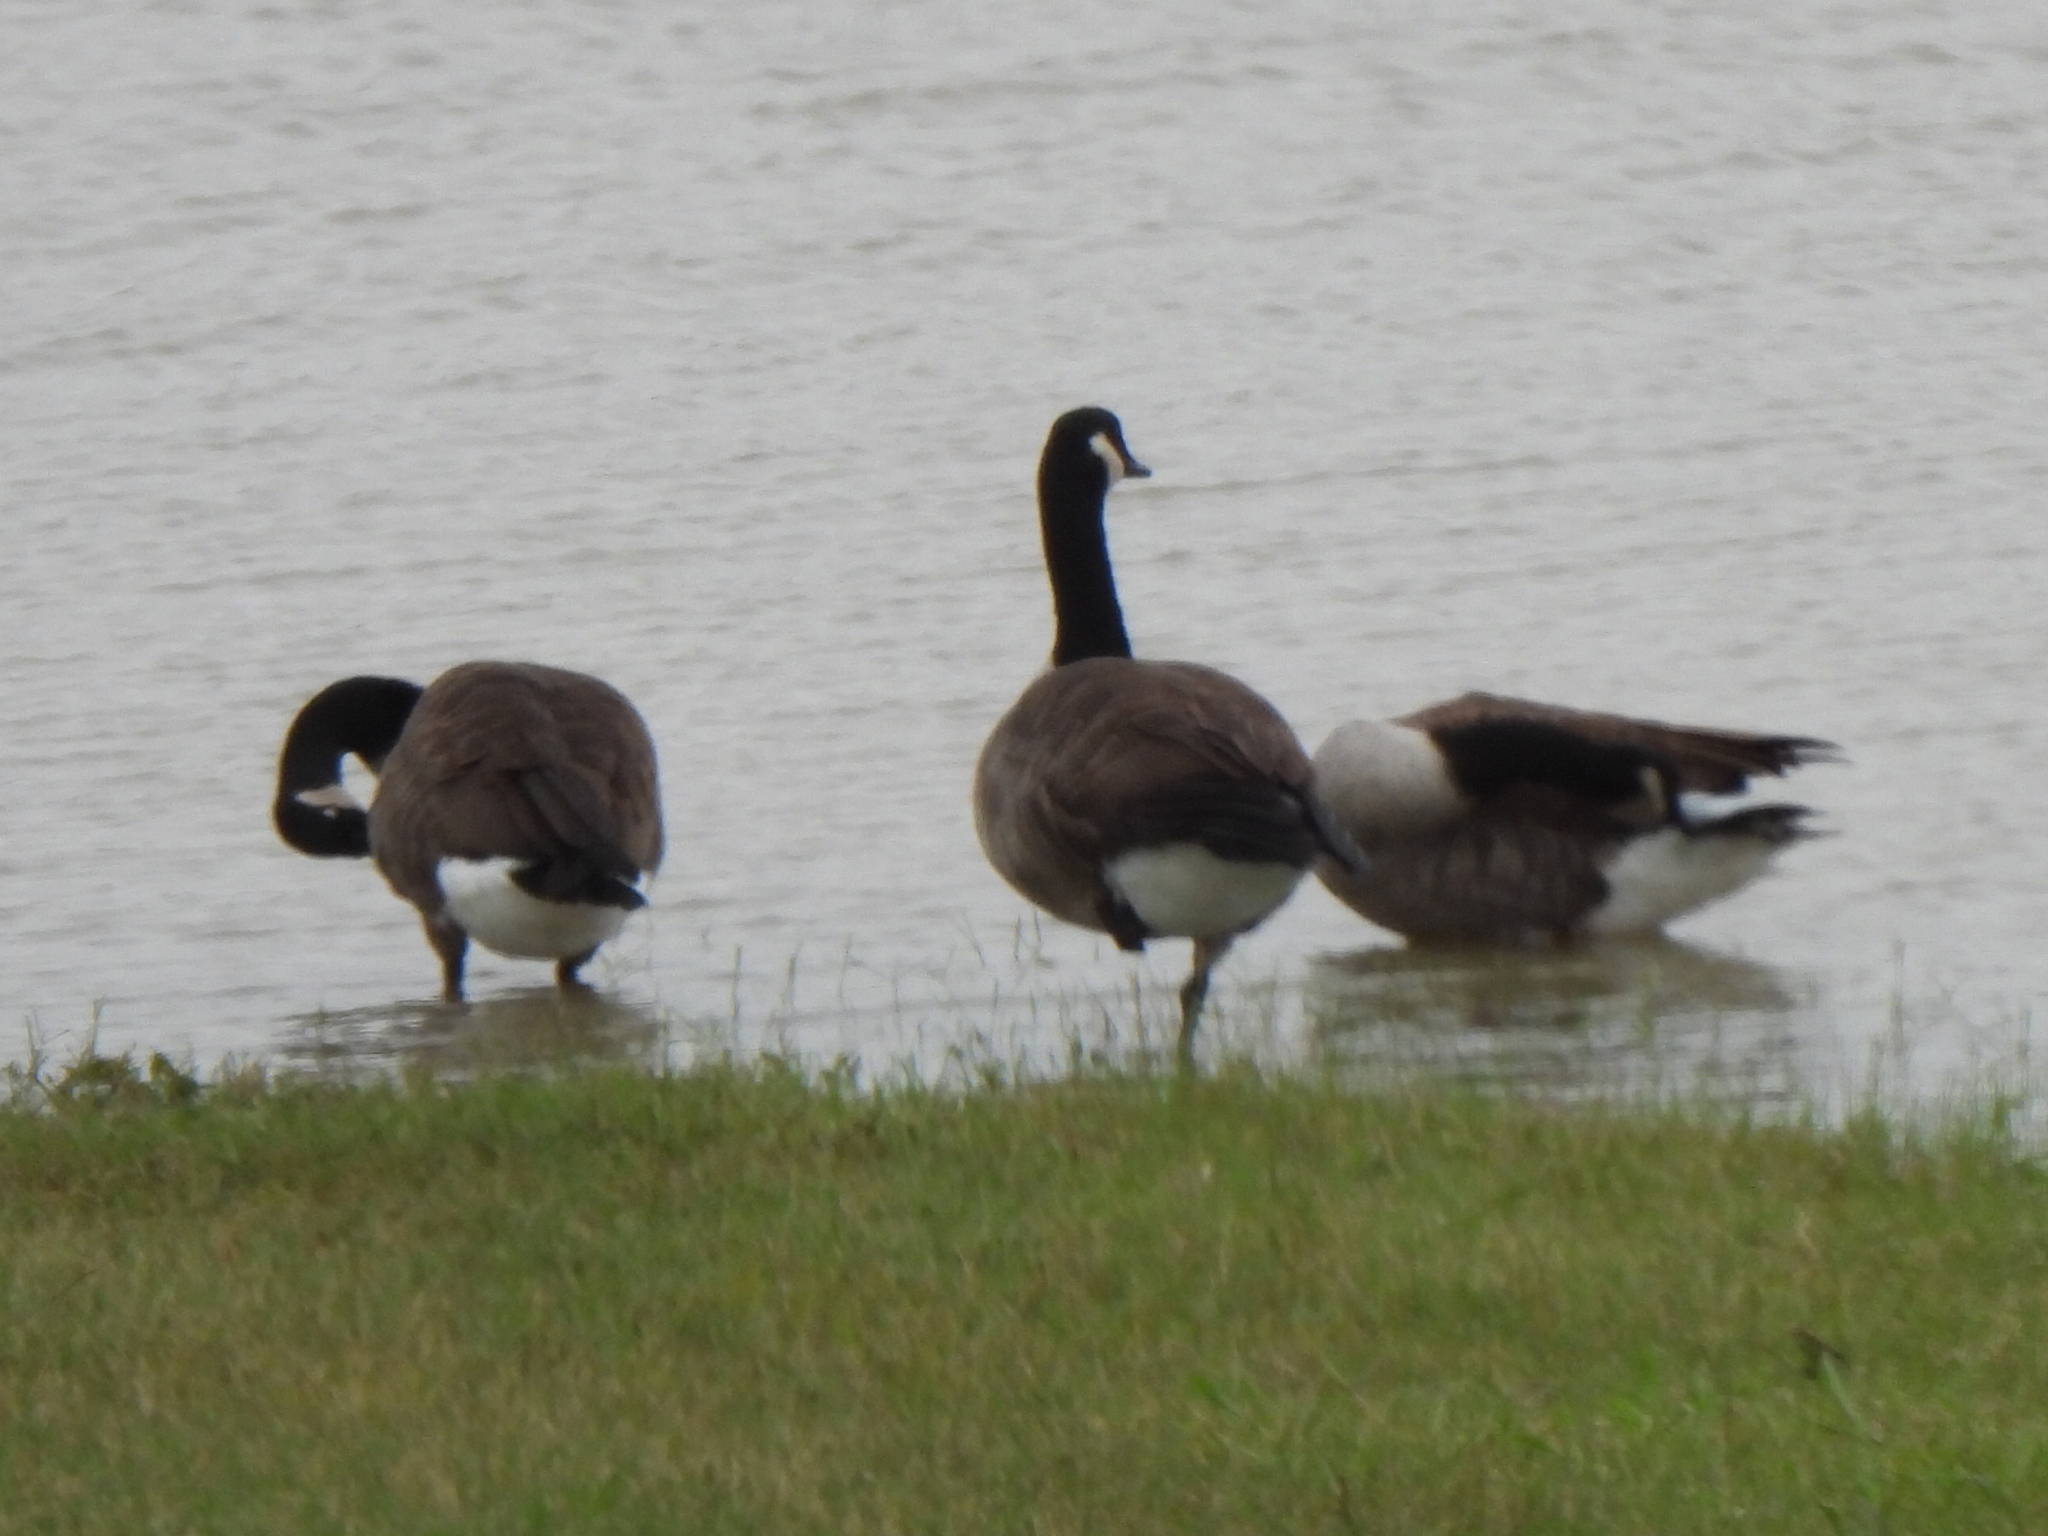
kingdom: Animalia
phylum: Chordata
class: Aves
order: Anseriformes
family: Anatidae
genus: Branta
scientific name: Branta canadensis
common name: Canada goose
